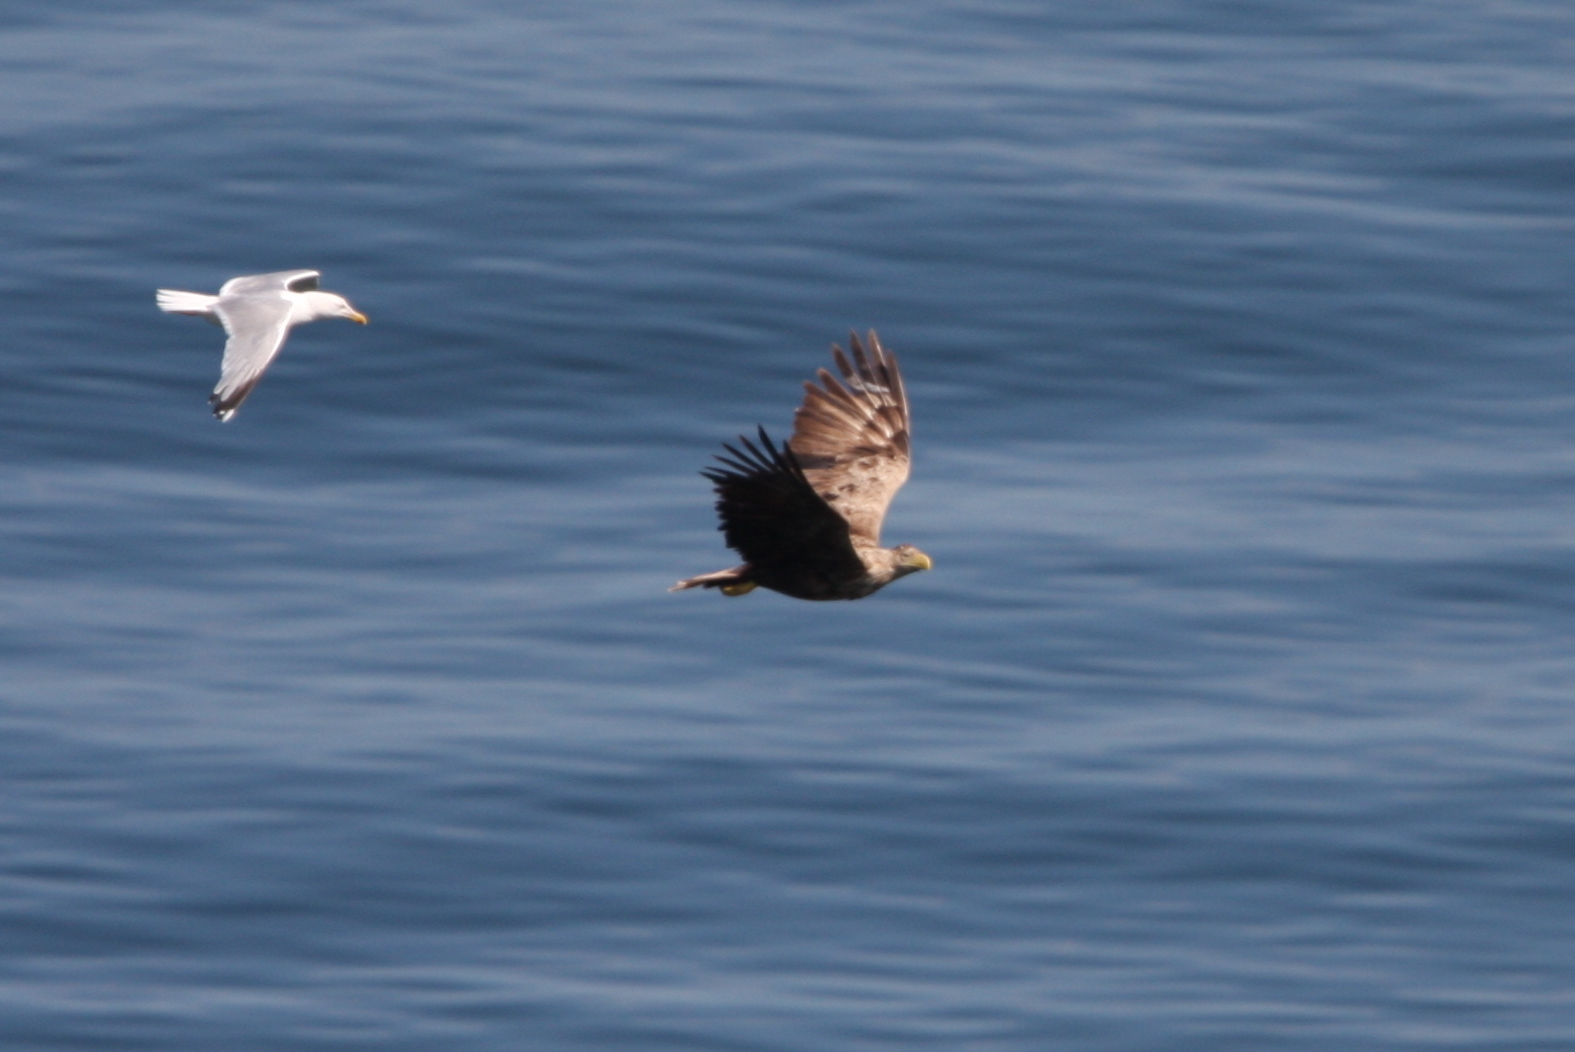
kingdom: Animalia
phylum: Chordata
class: Aves
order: Accipitriformes
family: Accipitridae
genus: Haliaeetus
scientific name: Haliaeetus albicilla
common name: White-tailed eagle
